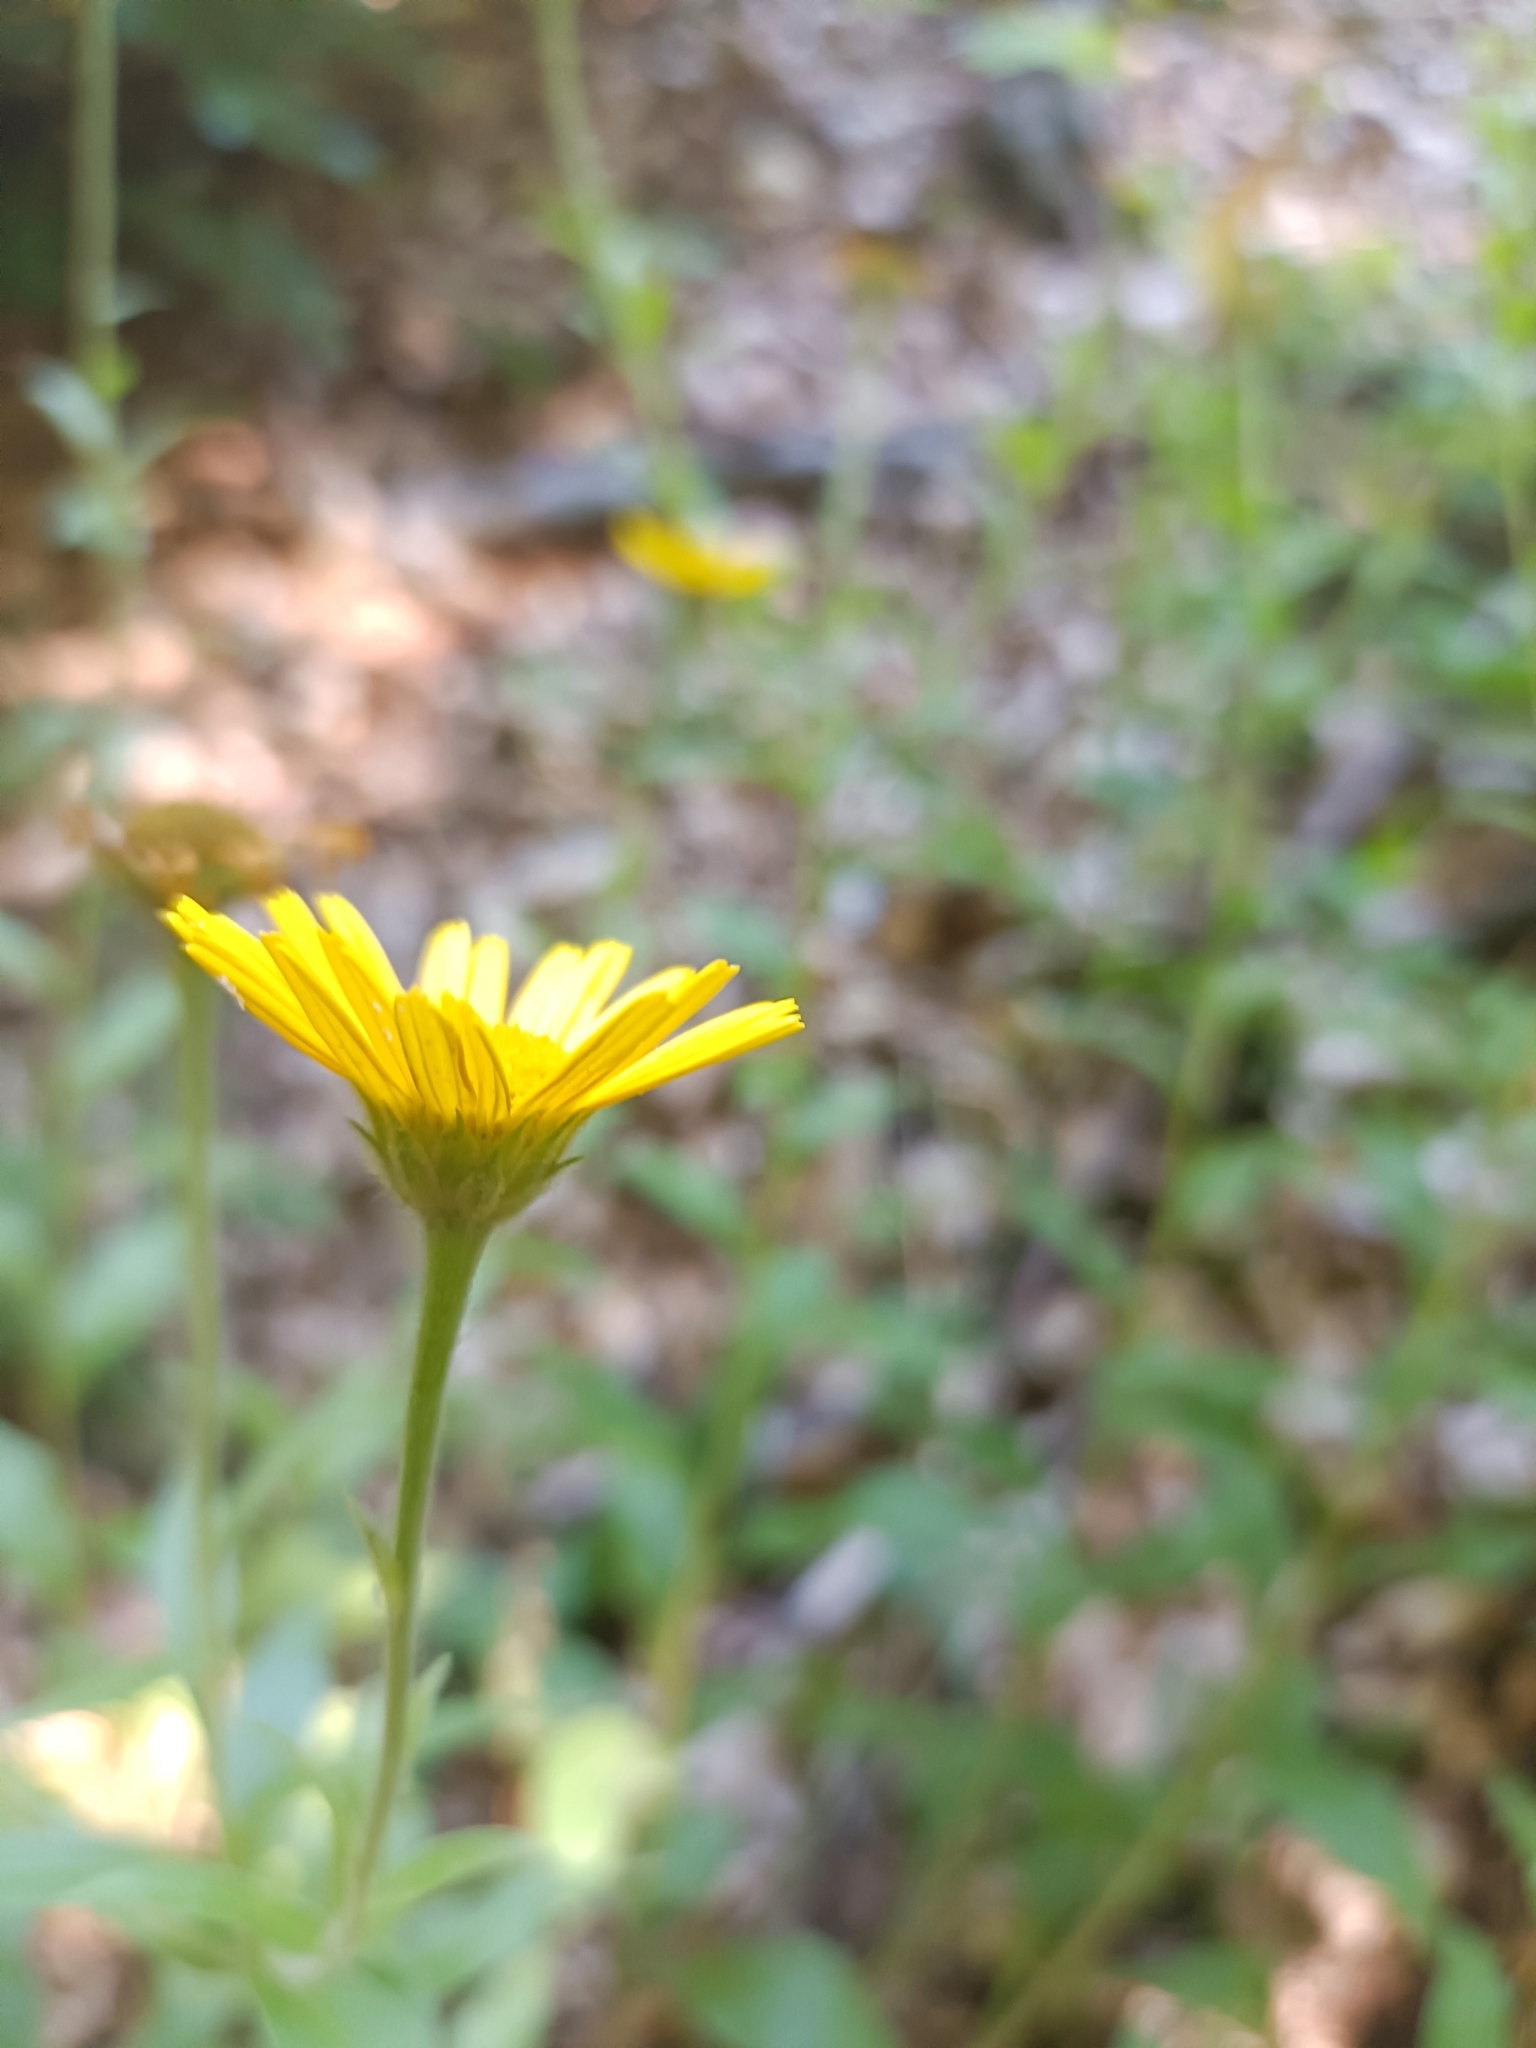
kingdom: Plantae
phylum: Tracheophyta
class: Magnoliopsida
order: Asterales
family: Asteraceae
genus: Buphthalmum
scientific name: Buphthalmum salicifolium
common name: Willow-leaved yellow-oxeye
